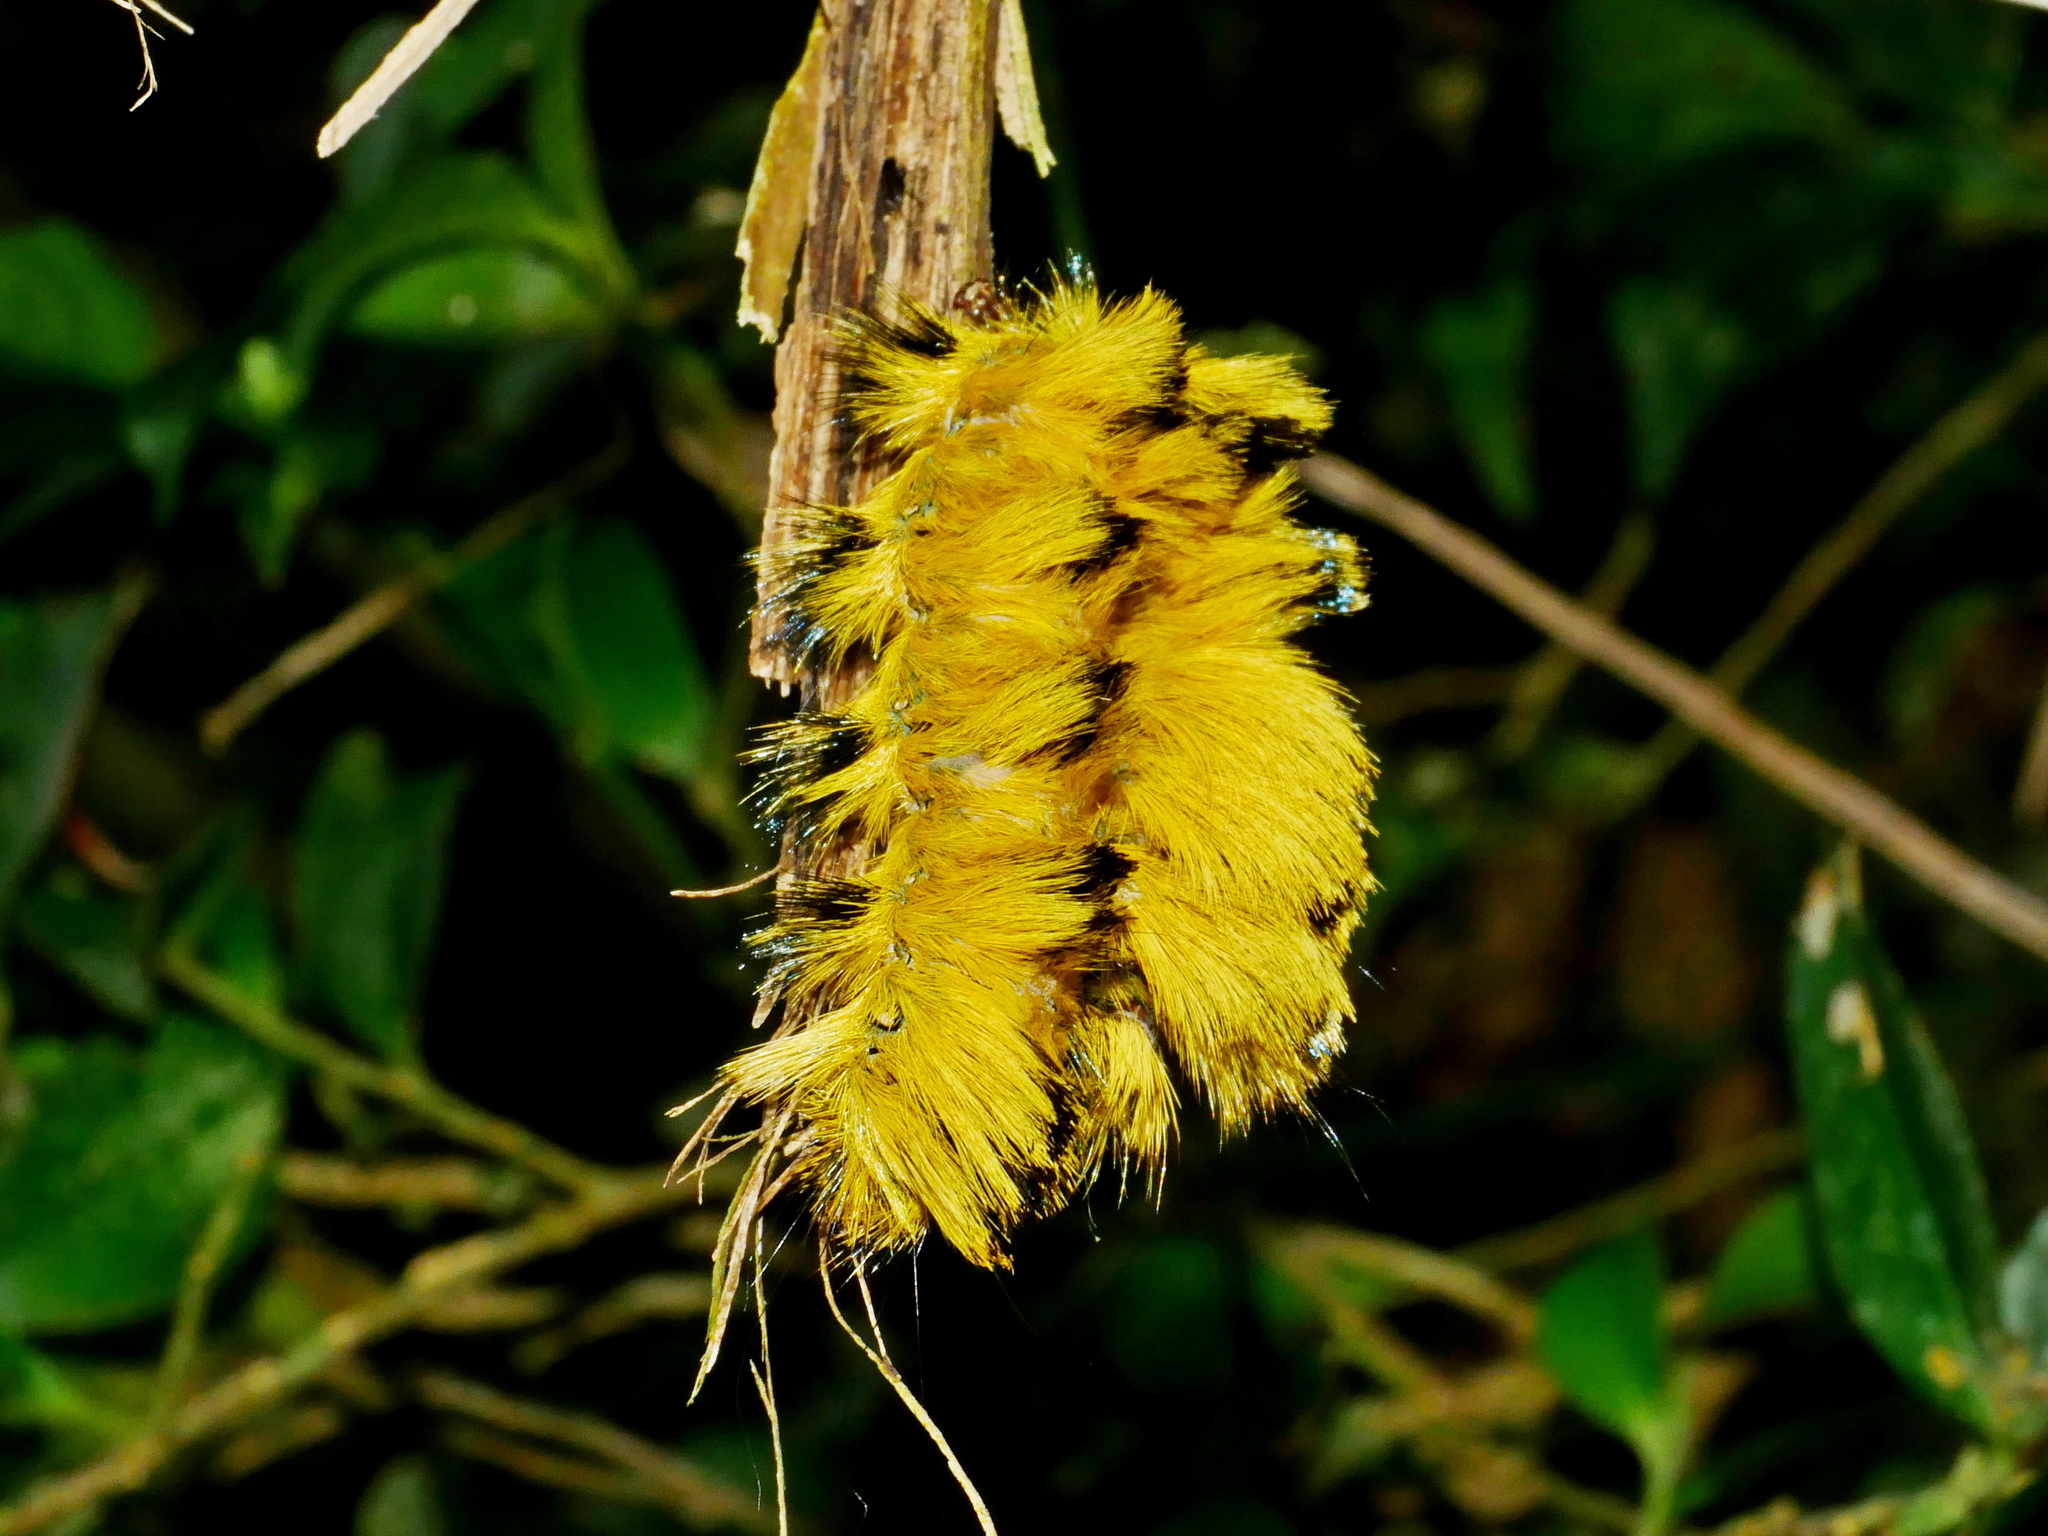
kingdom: Animalia
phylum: Arthropoda
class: Insecta
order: Lepidoptera
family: Eupterotidae
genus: Palirisa
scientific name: Palirisa cervina
